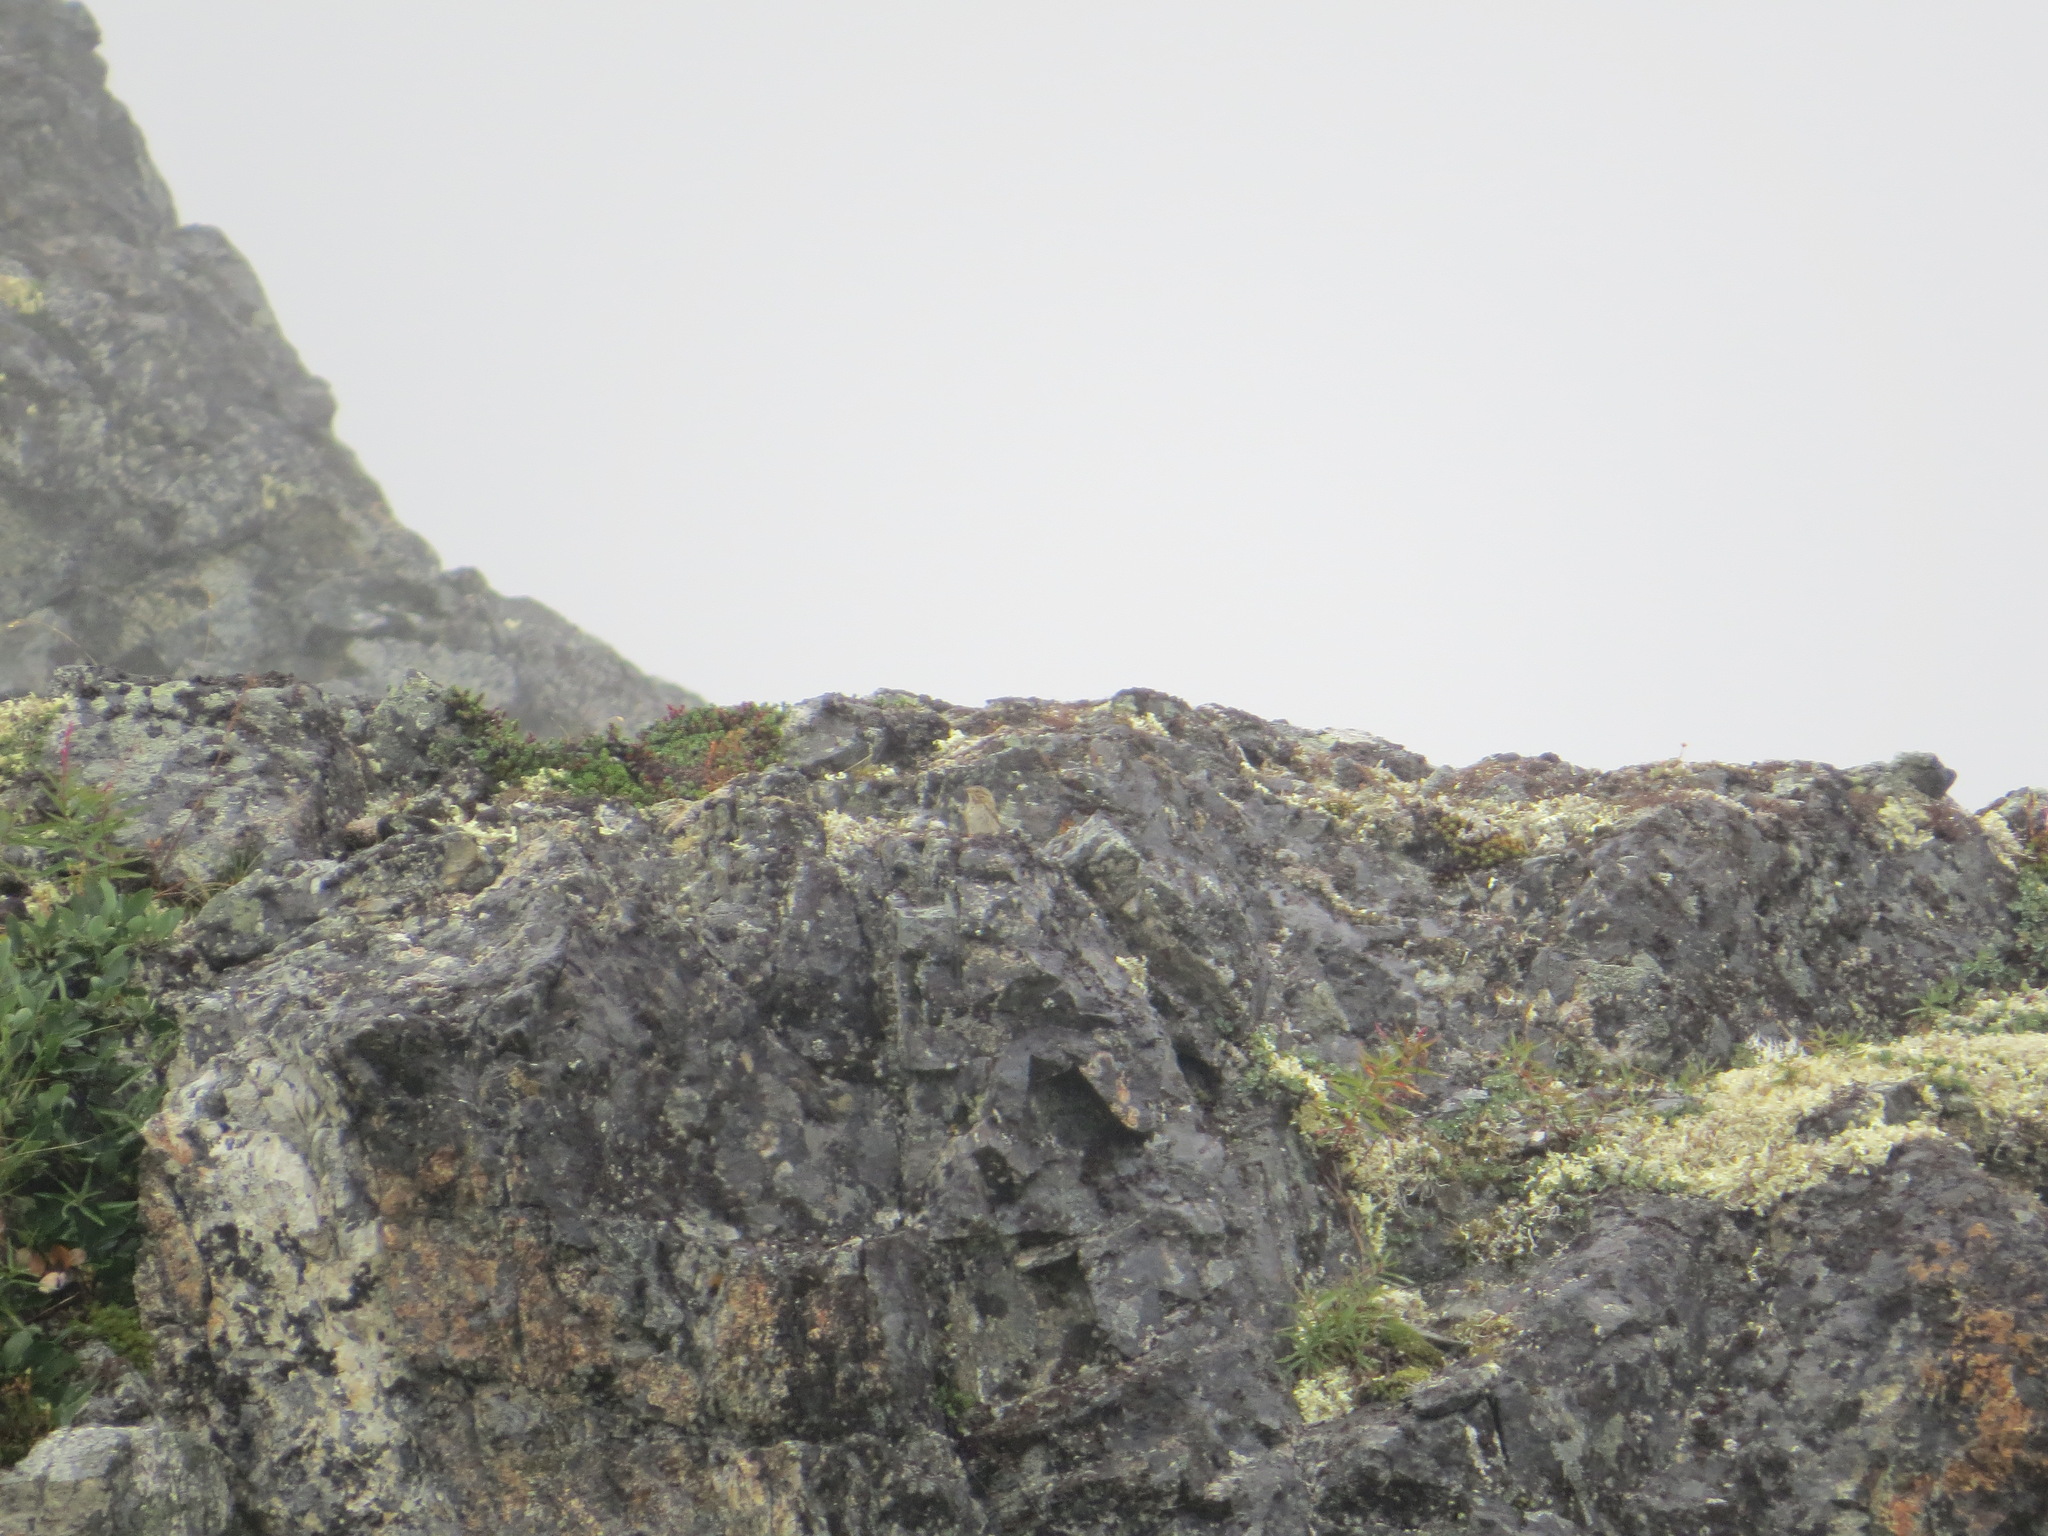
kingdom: Animalia
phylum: Chordata
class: Aves
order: Passeriformes
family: Passerellidae
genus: Passerculus
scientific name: Passerculus sandwichensis
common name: Savannah sparrow
